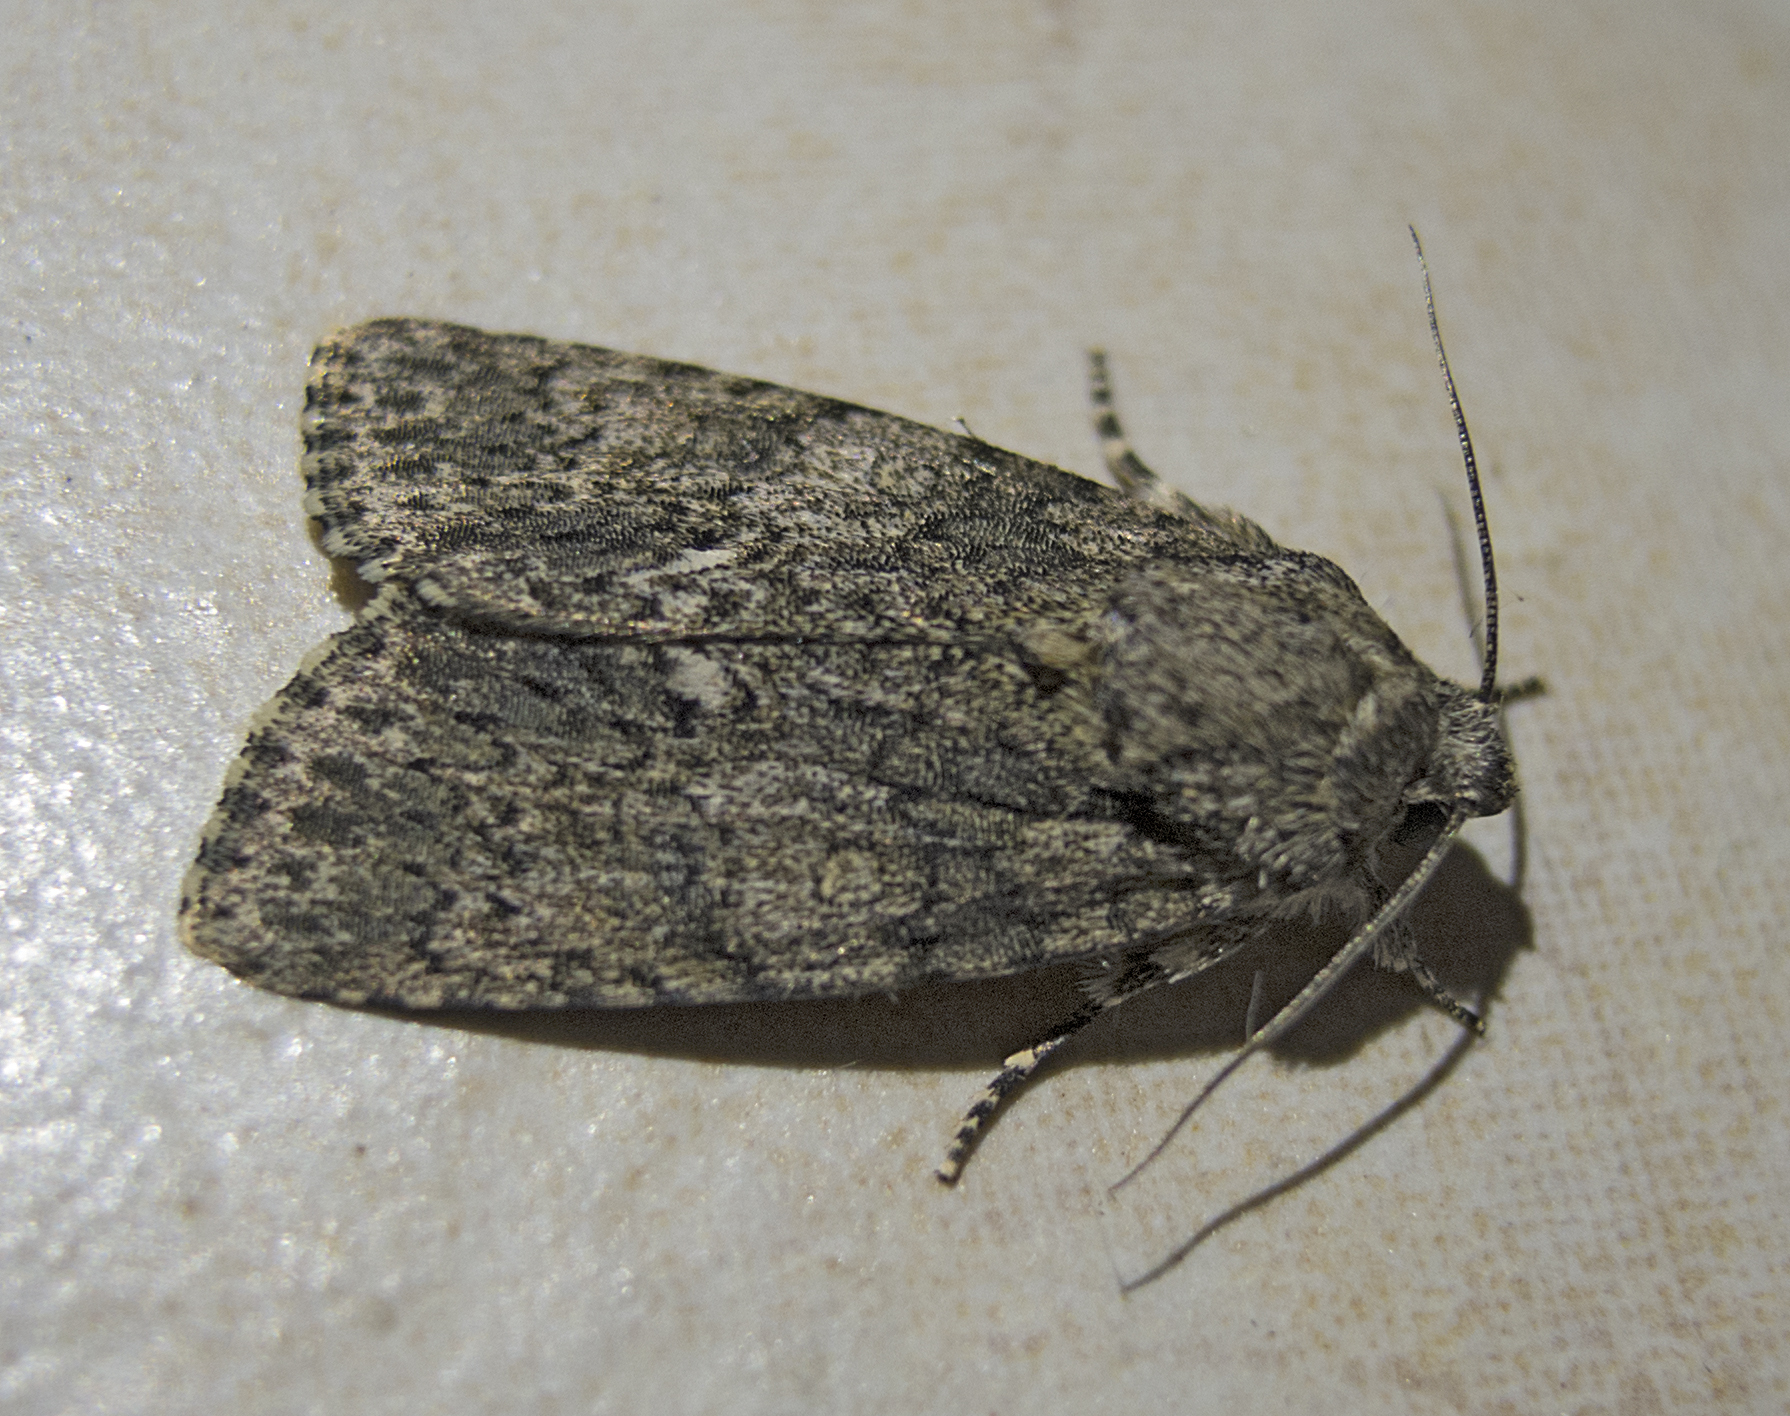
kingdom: Animalia
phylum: Arthropoda
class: Insecta
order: Lepidoptera
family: Noctuidae
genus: Acronicta
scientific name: Acronicta rumicis
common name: Knot grass
